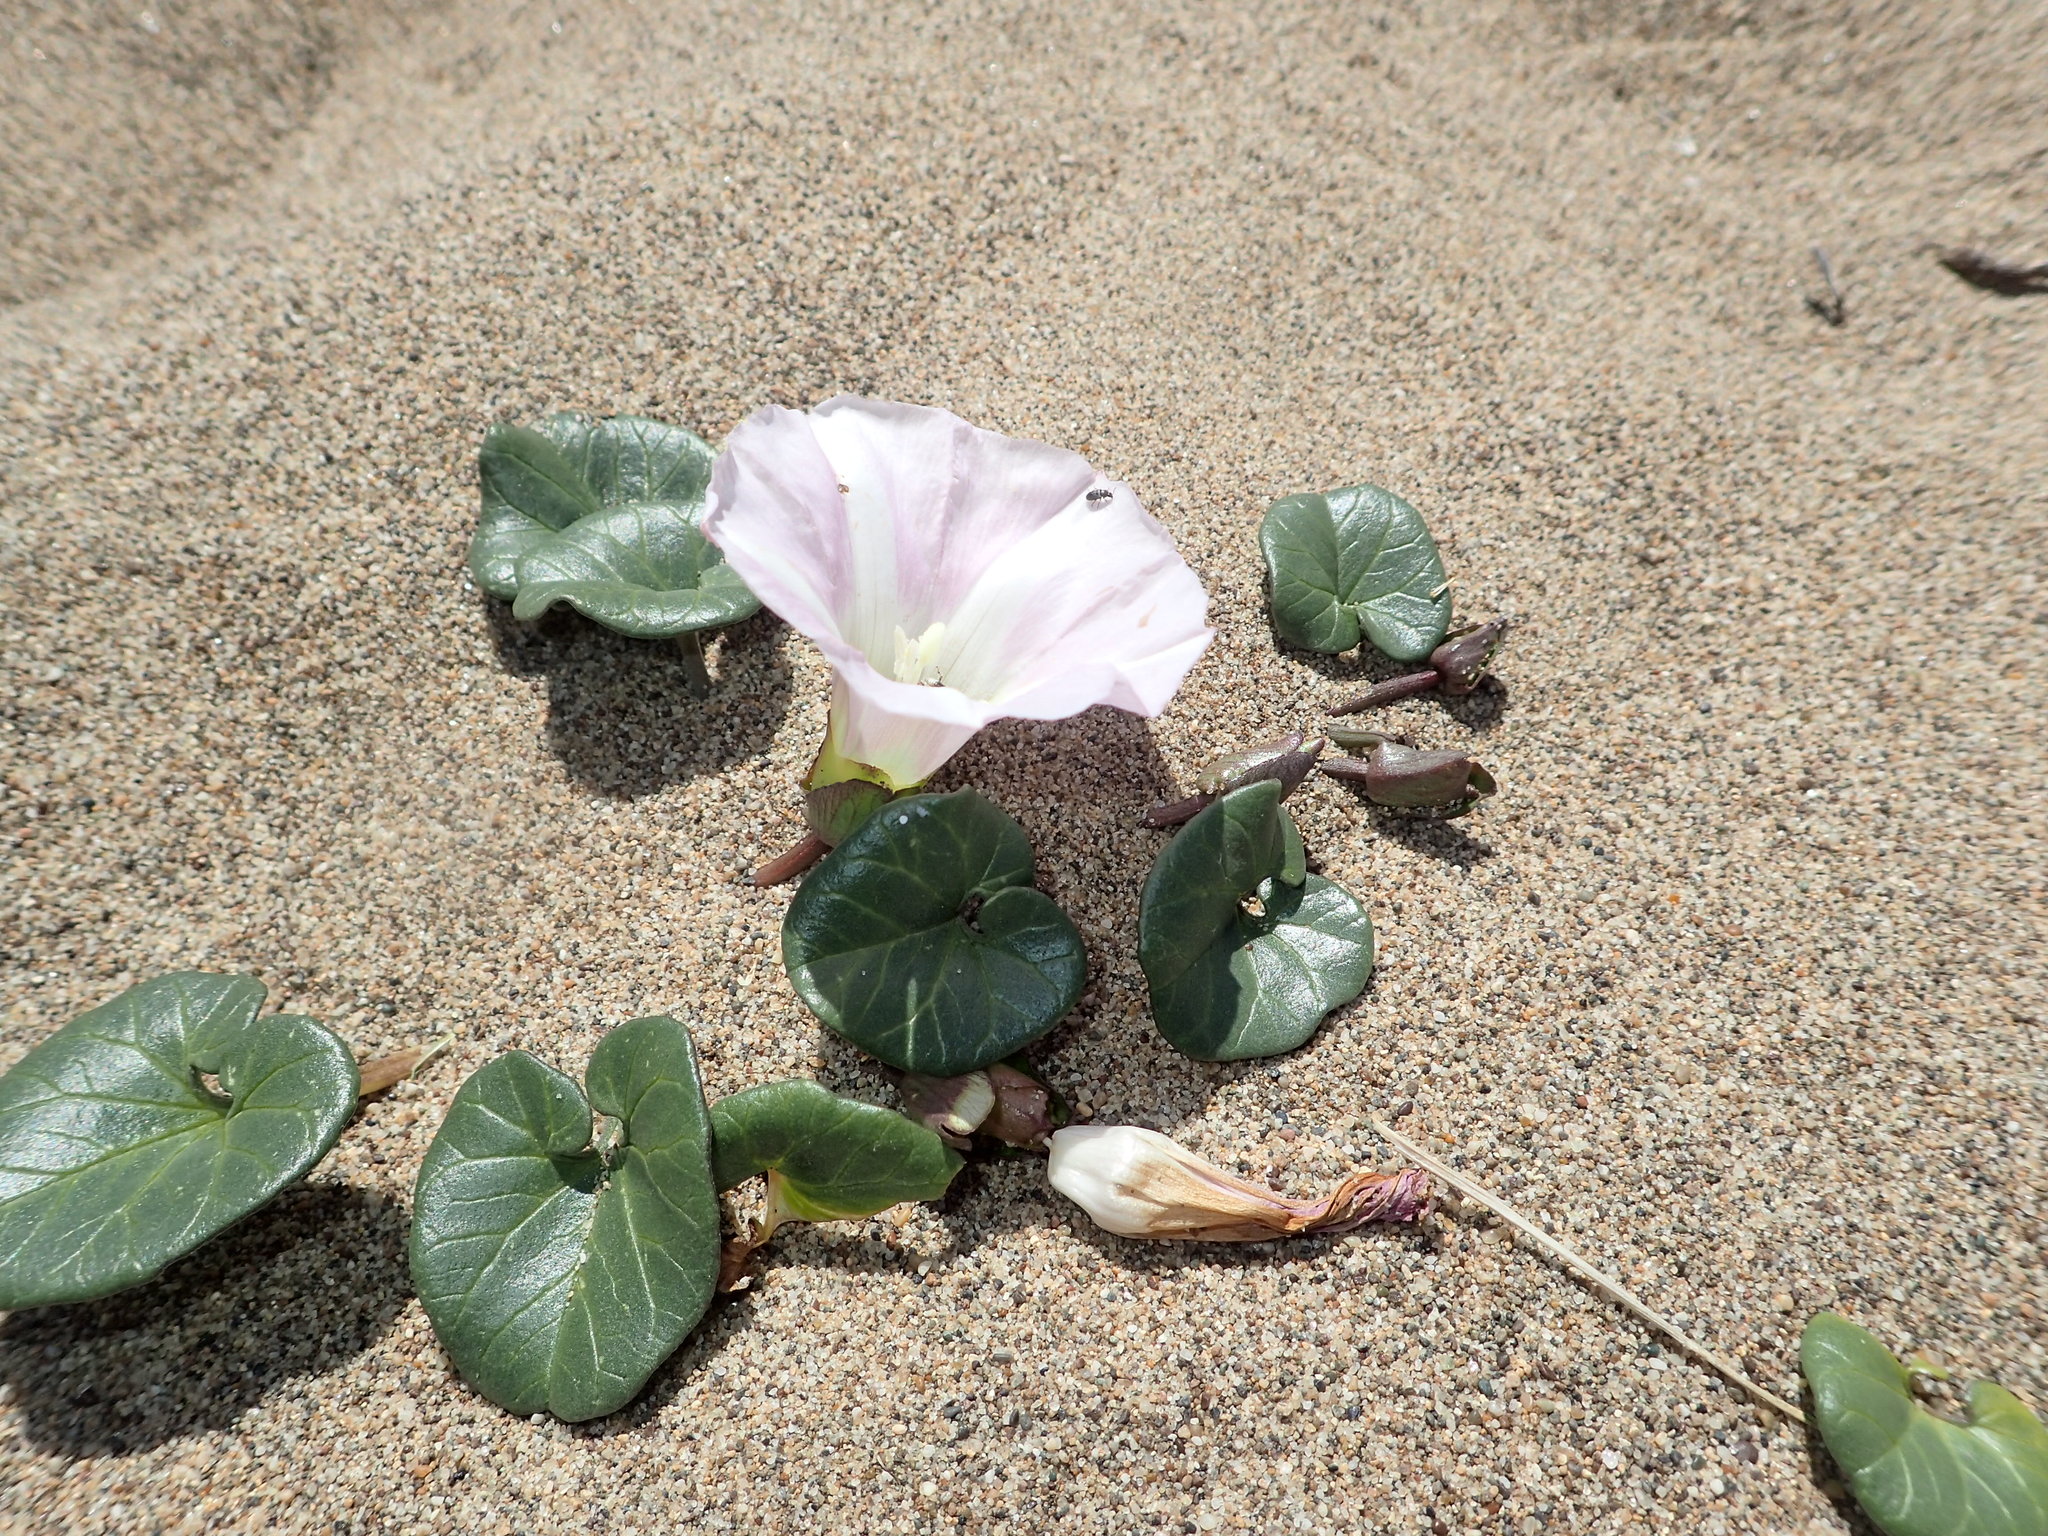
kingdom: Plantae
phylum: Tracheophyta
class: Magnoliopsida
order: Solanales
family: Convolvulaceae
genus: Calystegia
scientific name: Calystegia soldanella
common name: Sea bindweed
